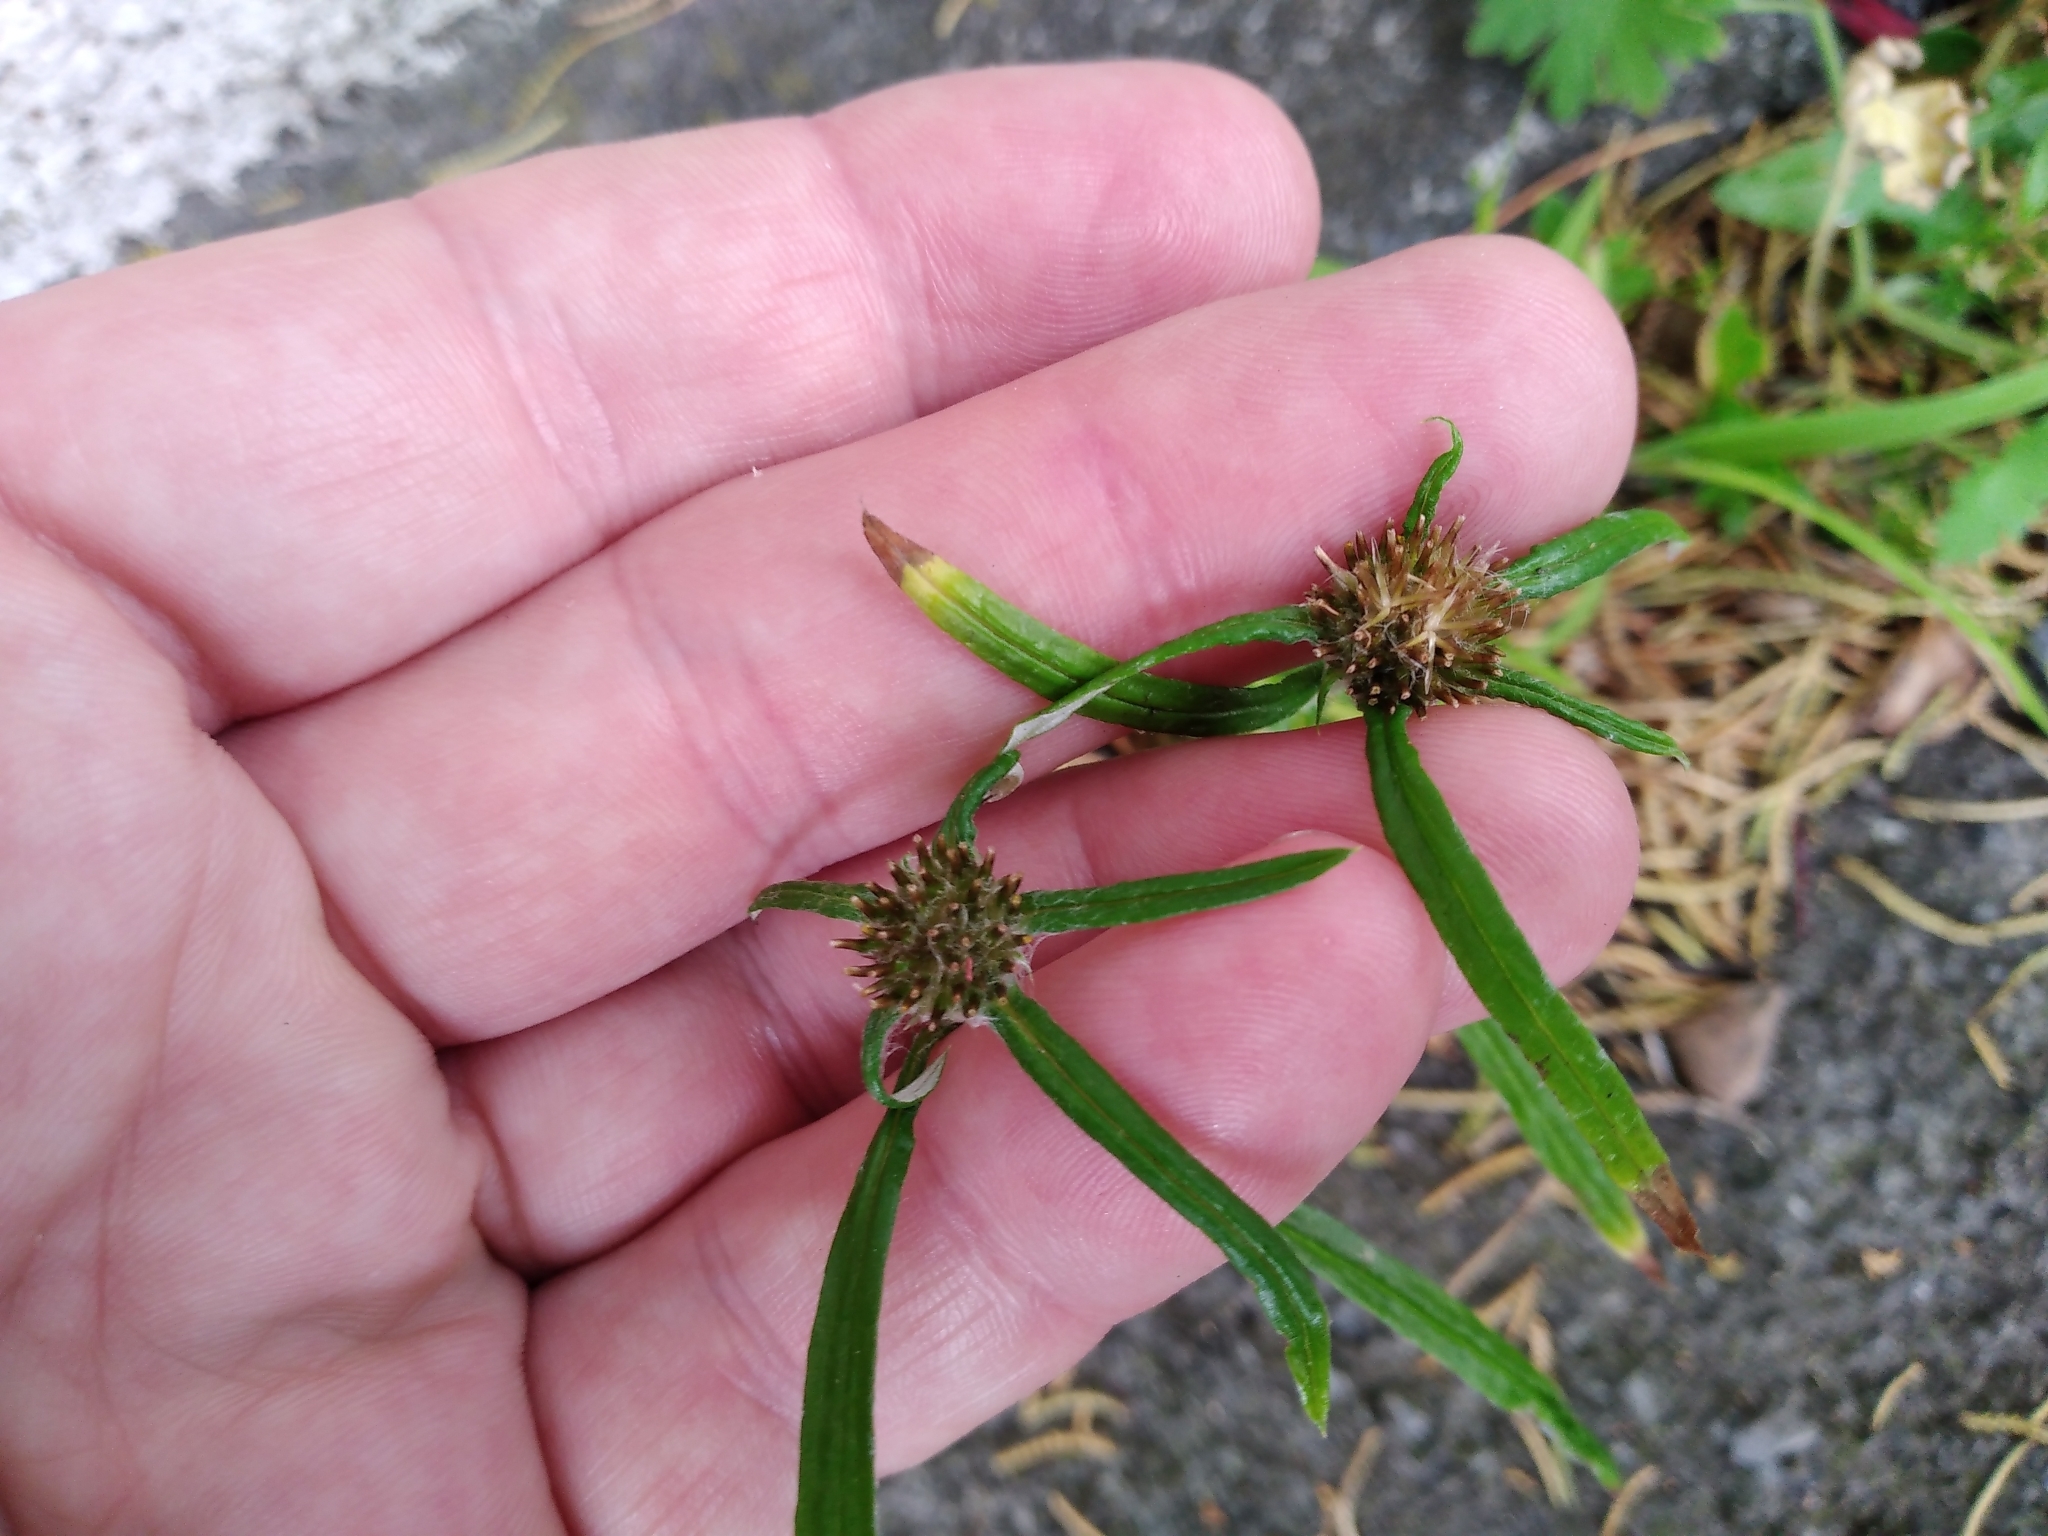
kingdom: Plantae
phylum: Tracheophyta
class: Magnoliopsida
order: Asterales
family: Asteraceae
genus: Euchiton
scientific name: Euchiton sphaericus
